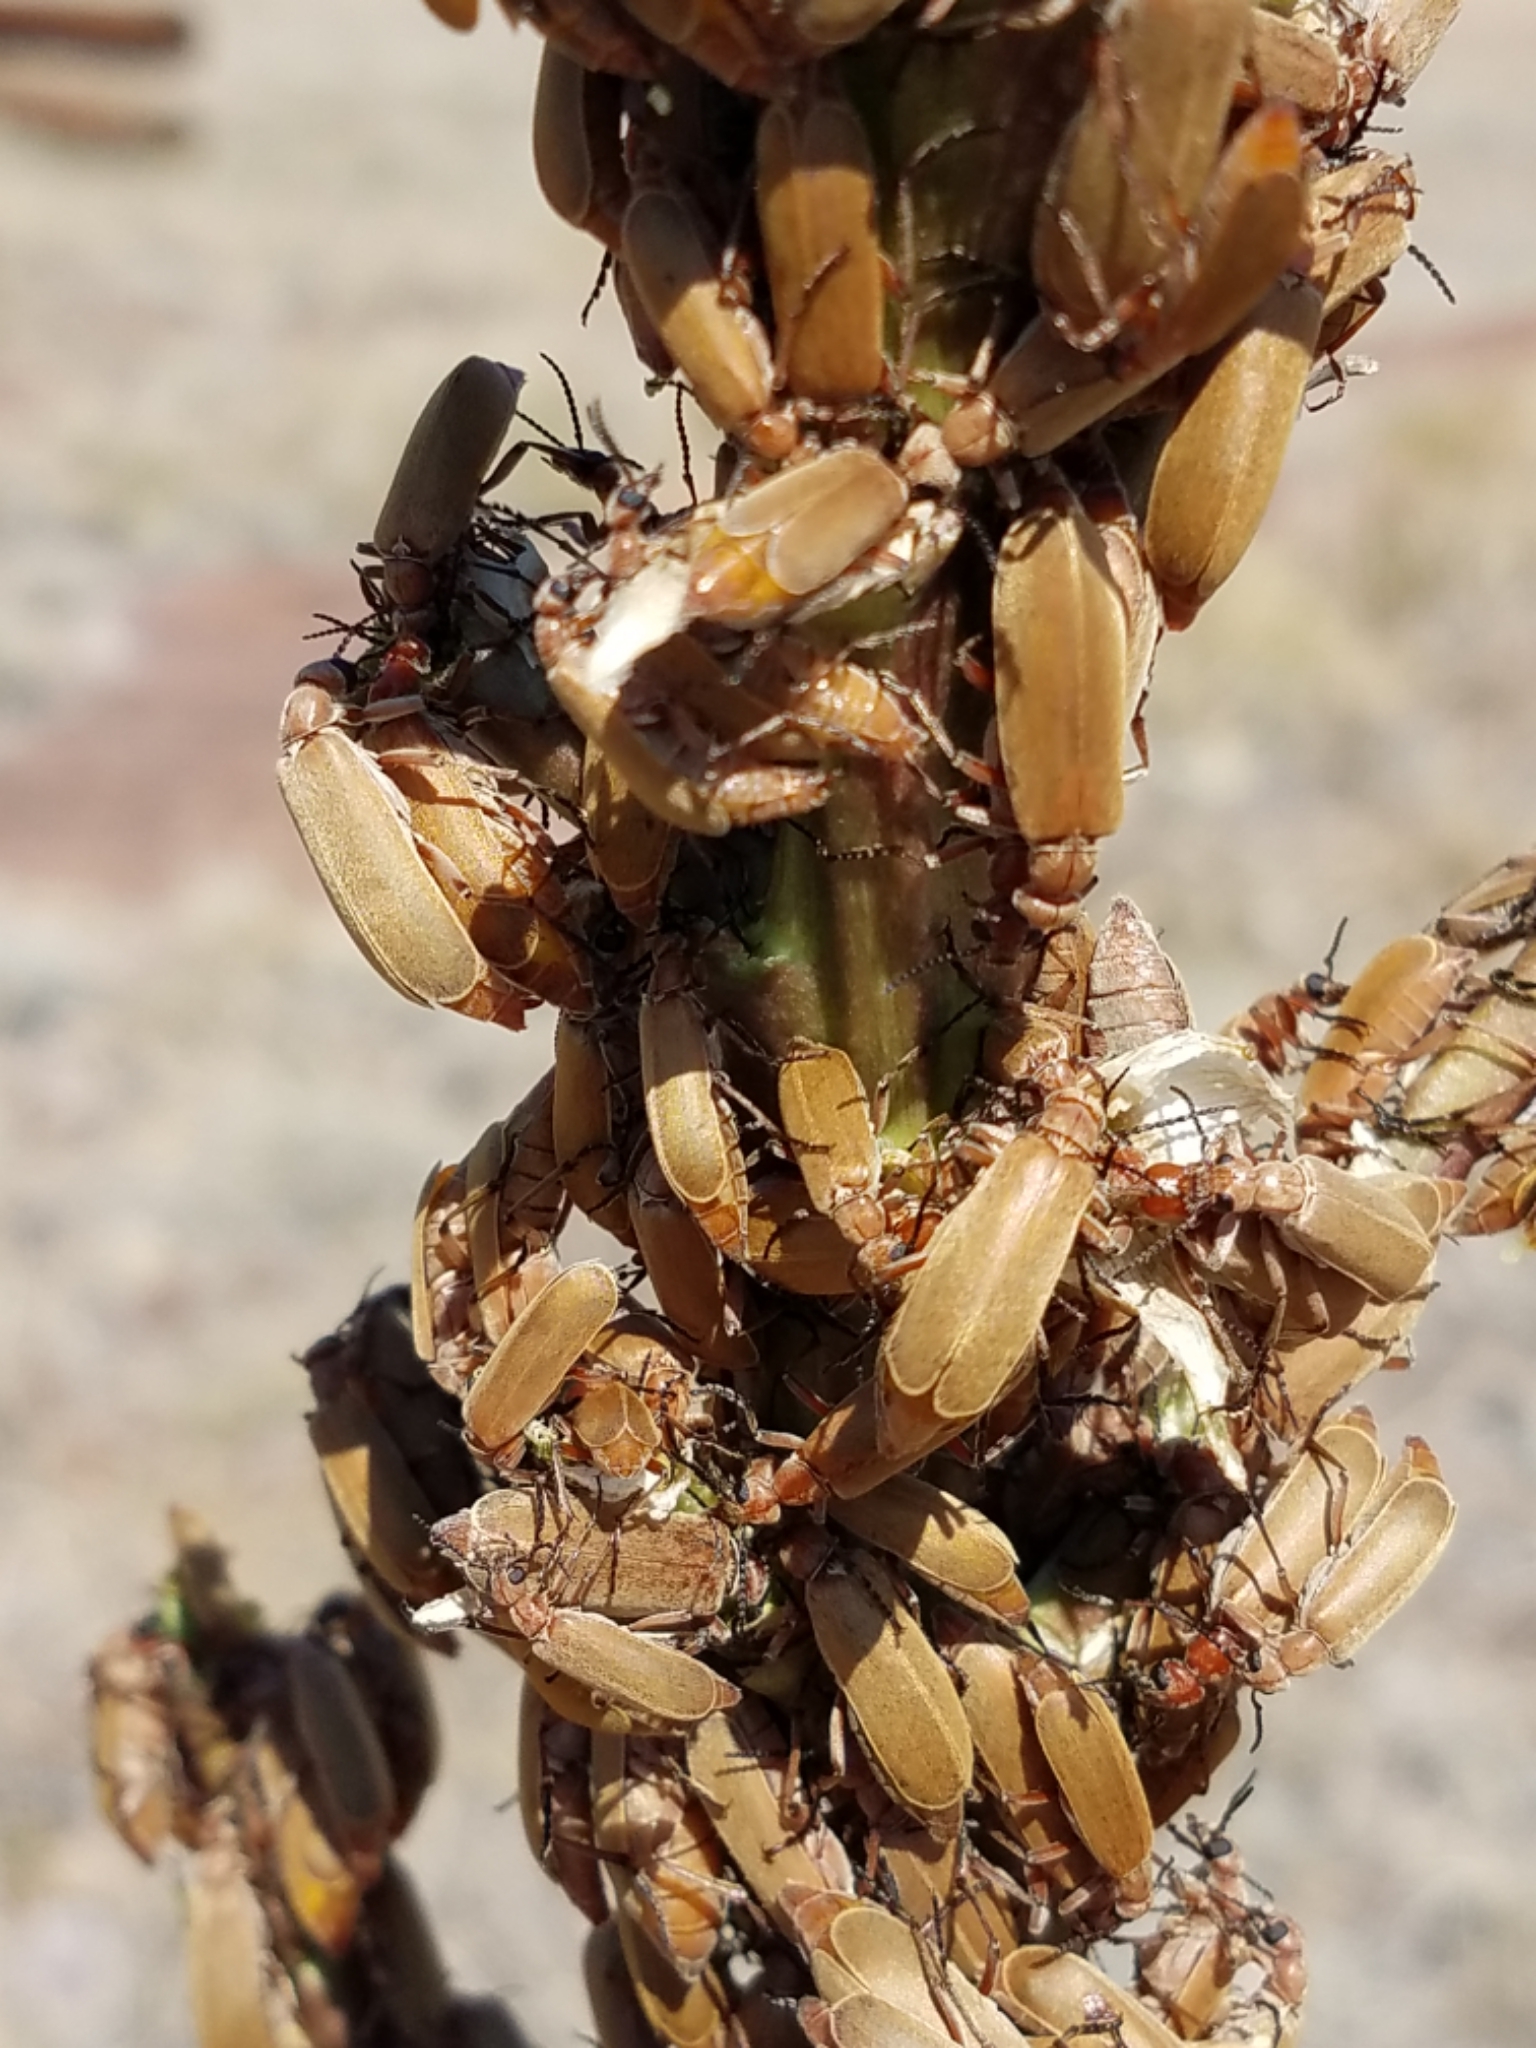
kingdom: Animalia
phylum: Arthropoda
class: Insecta
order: Coleoptera
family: Meloidae
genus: Epicauta
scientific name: Epicauta ochrea
